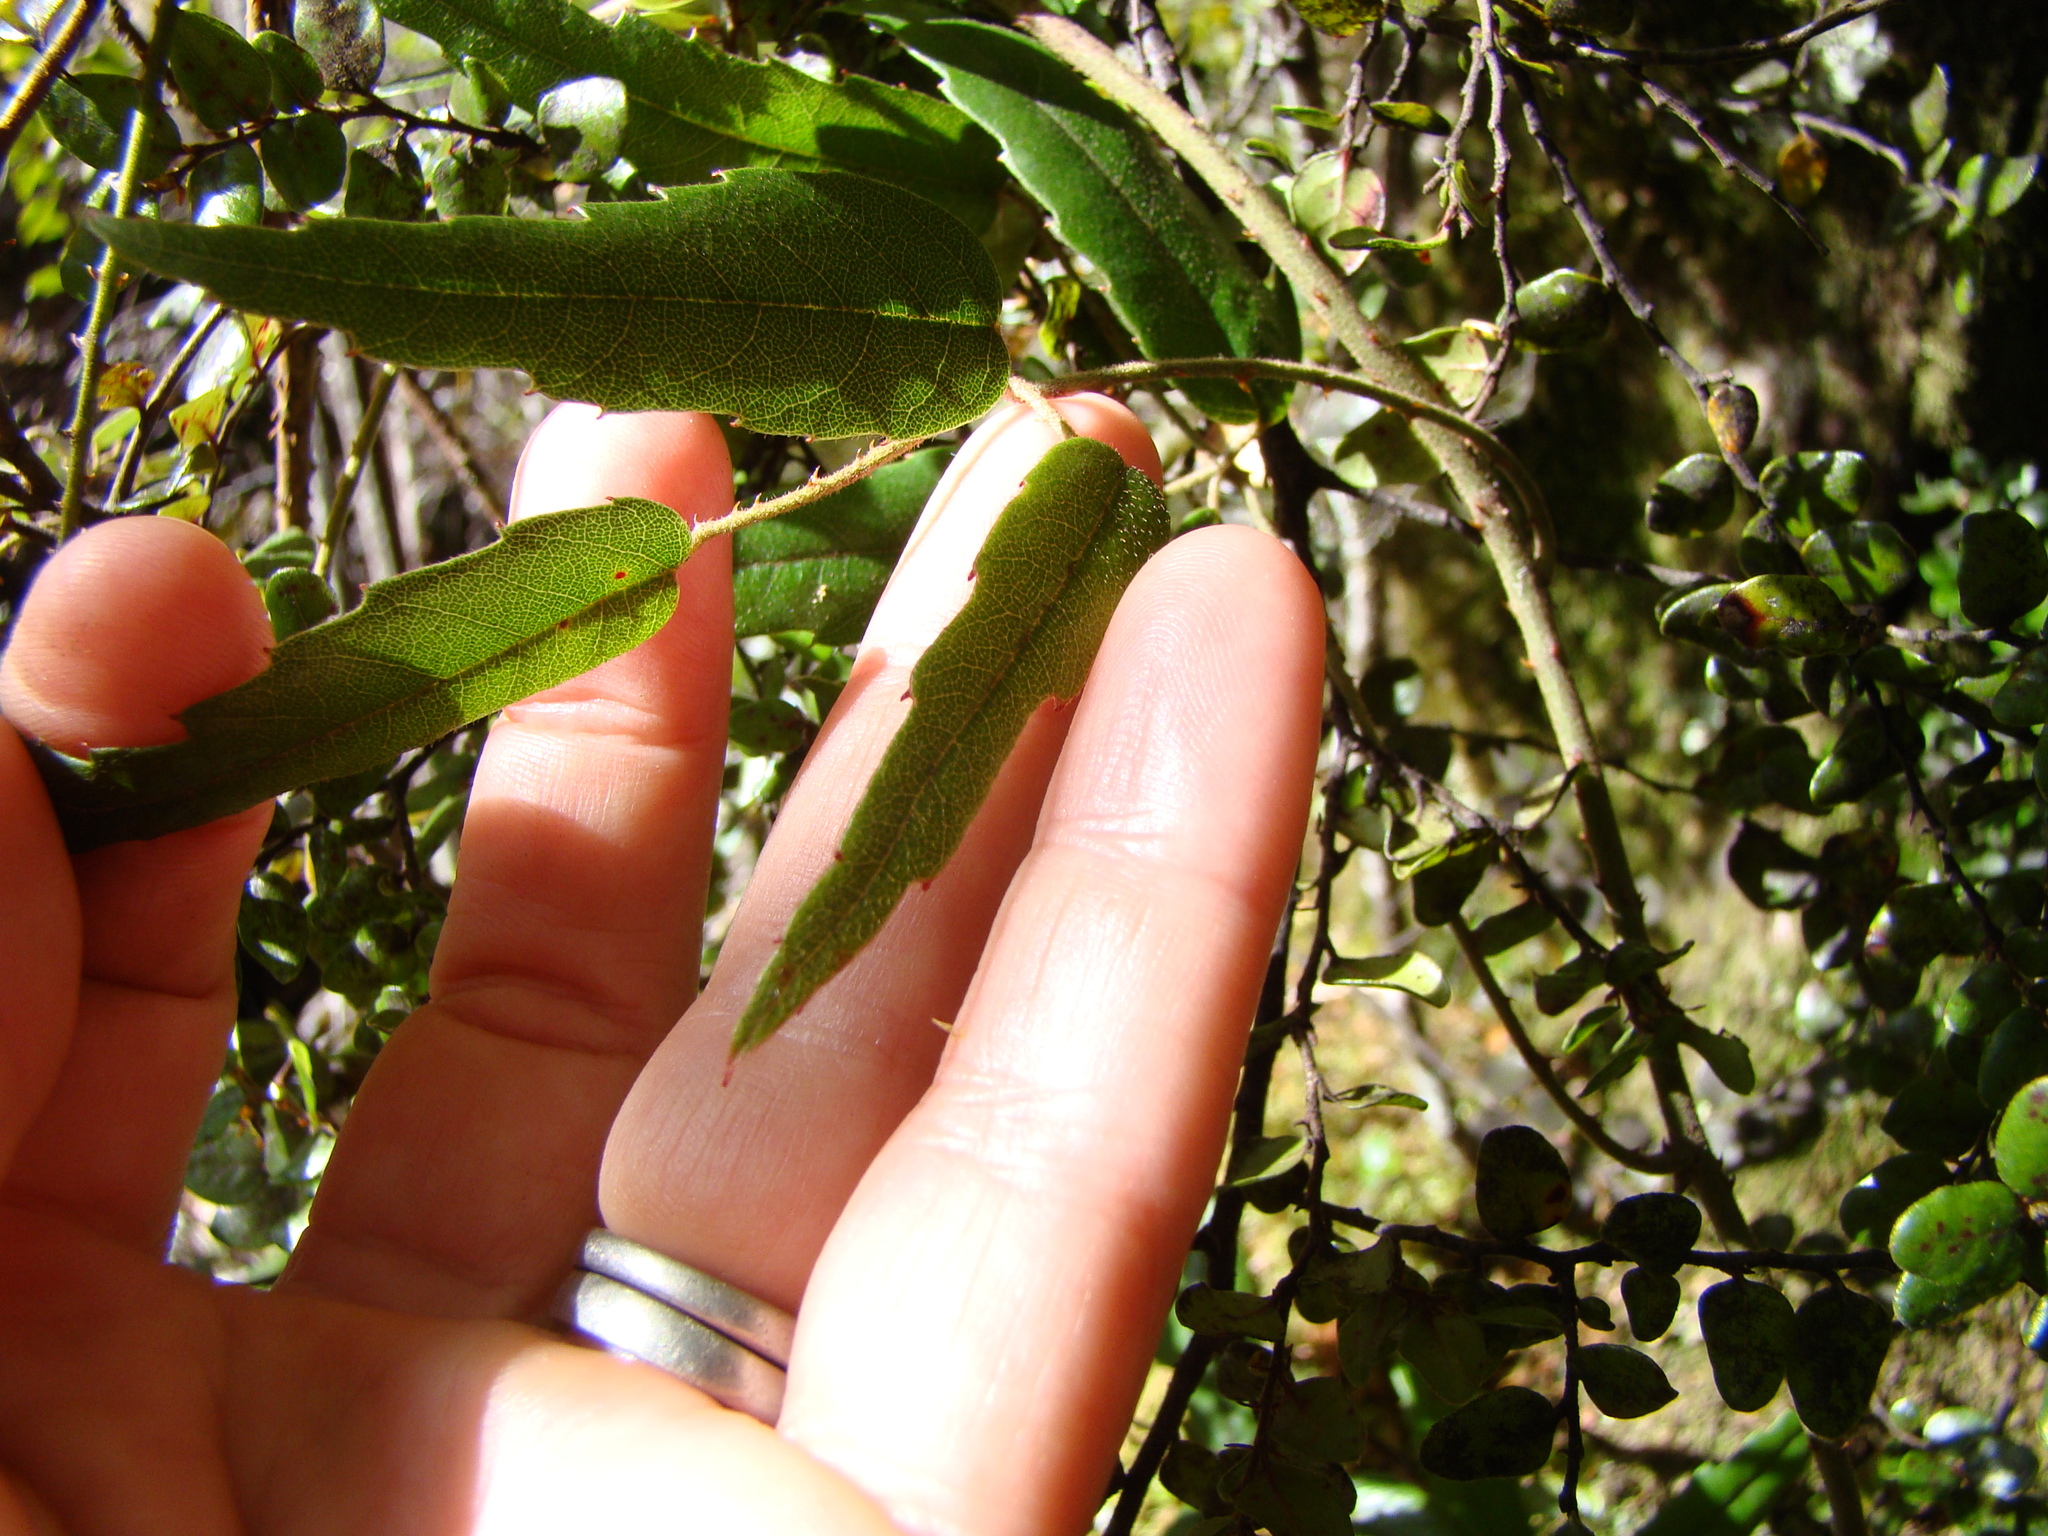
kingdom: Plantae
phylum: Tracheophyta
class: Magnoliopsida
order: Rosales
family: Rosaceae
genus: Rubus
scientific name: Rubus schmidelioides
